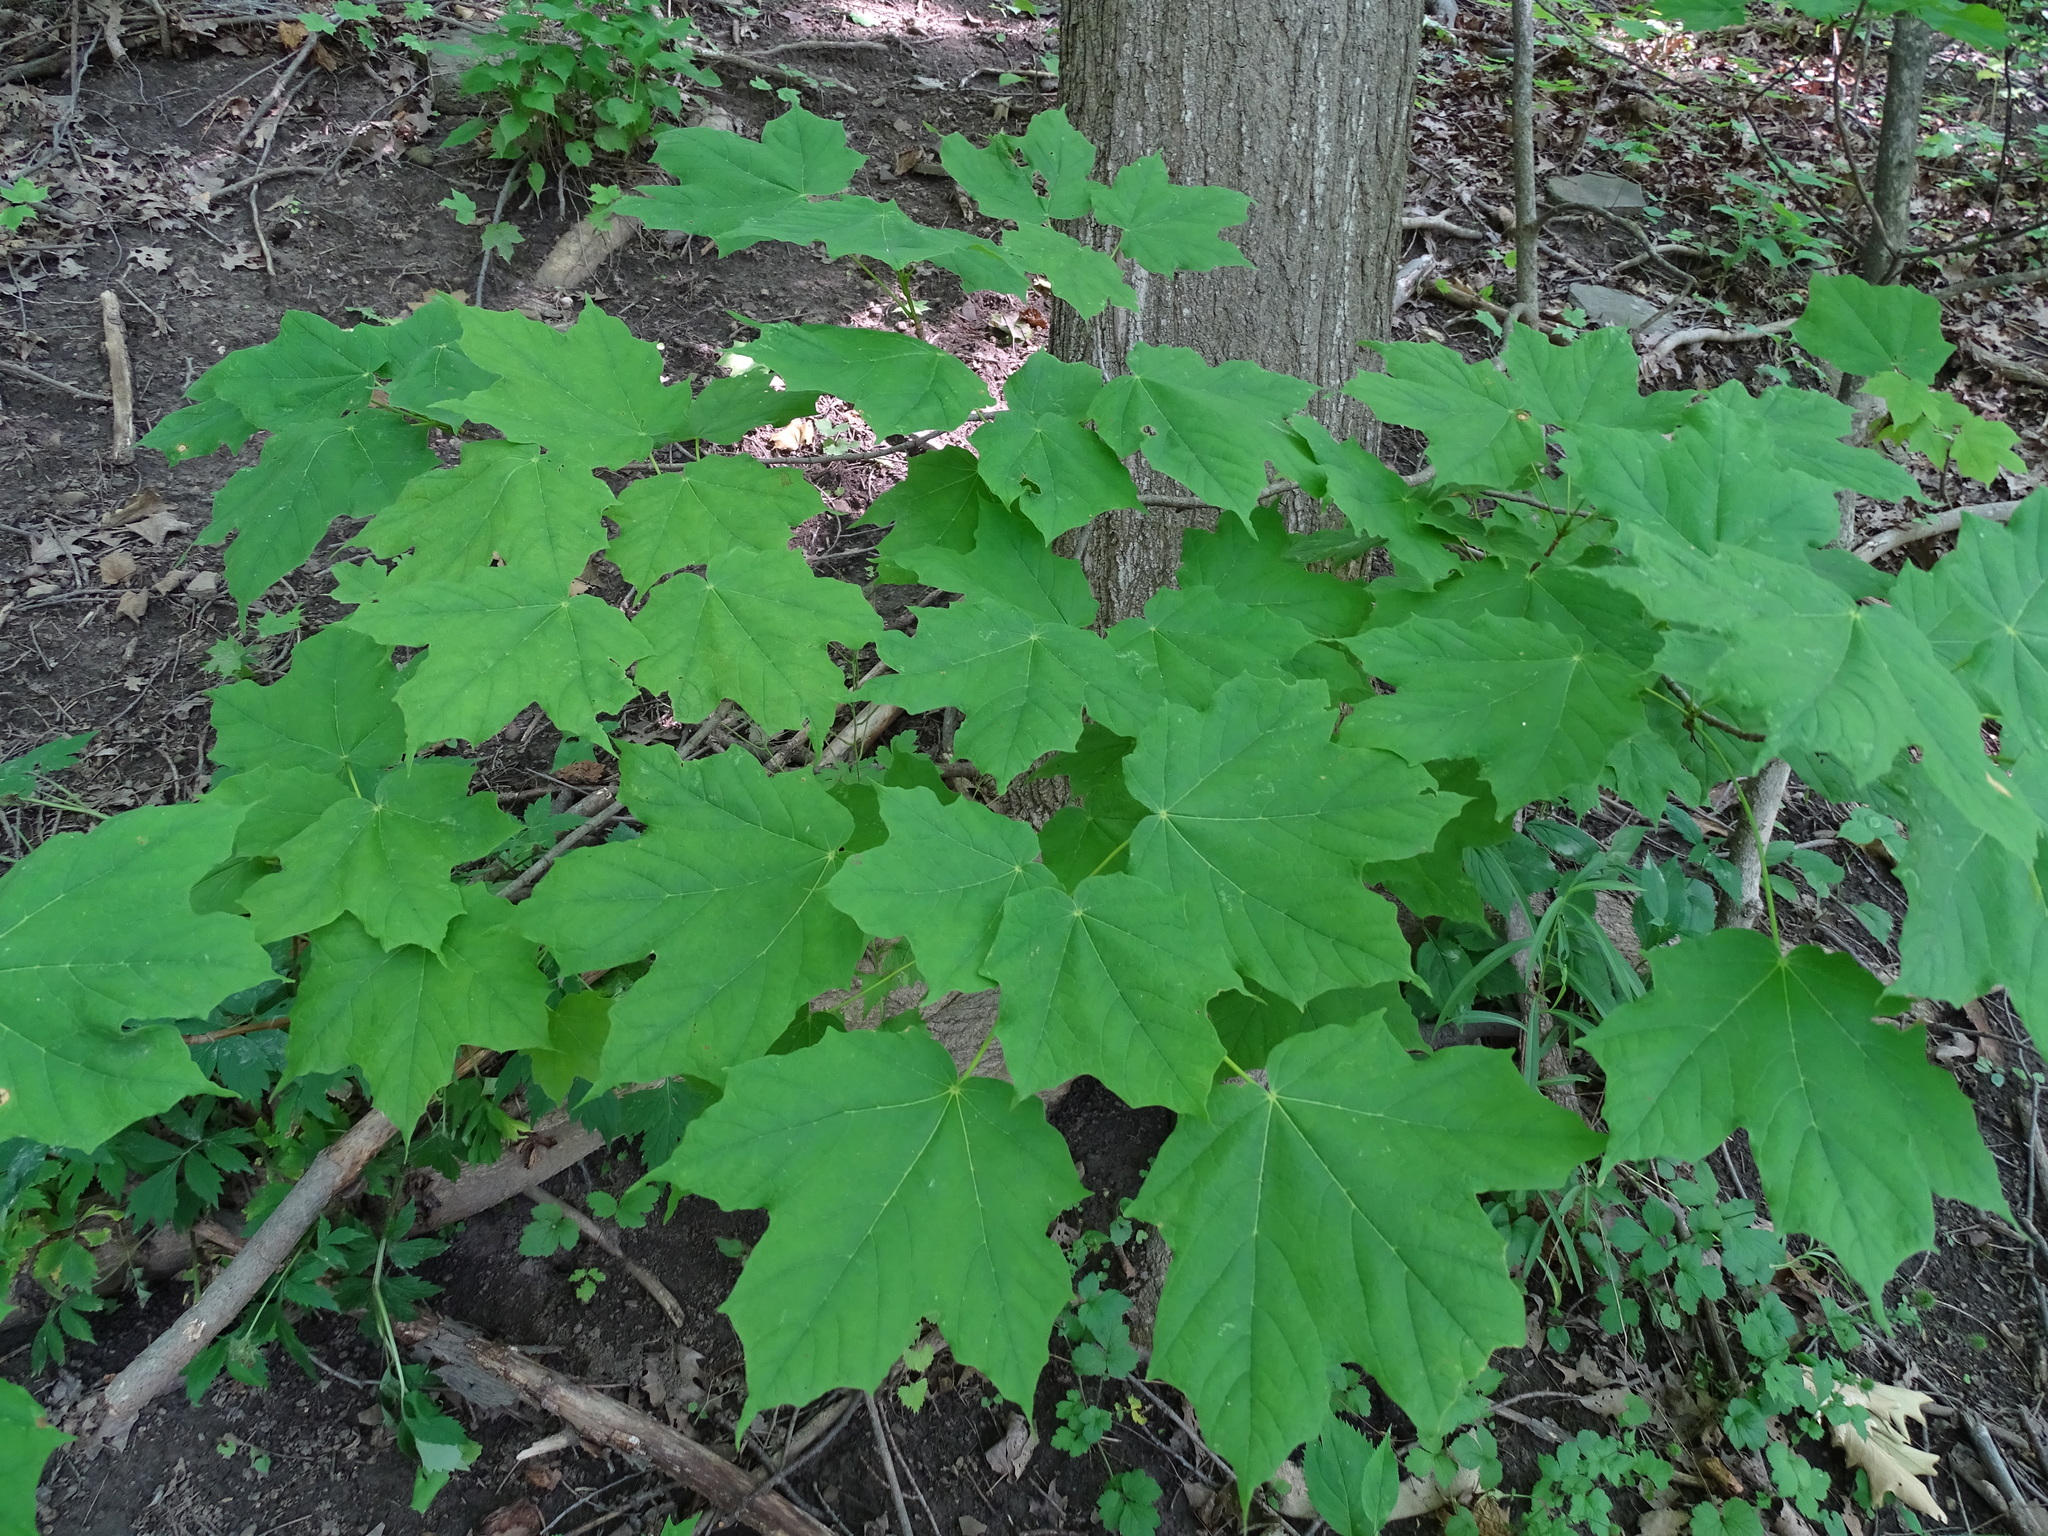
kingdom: Plantae
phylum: Tracheophyta
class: Magnoliopsida
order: Sapindales
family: Sapindaceae
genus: Acer
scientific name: Acer nigrum
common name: Black maple
